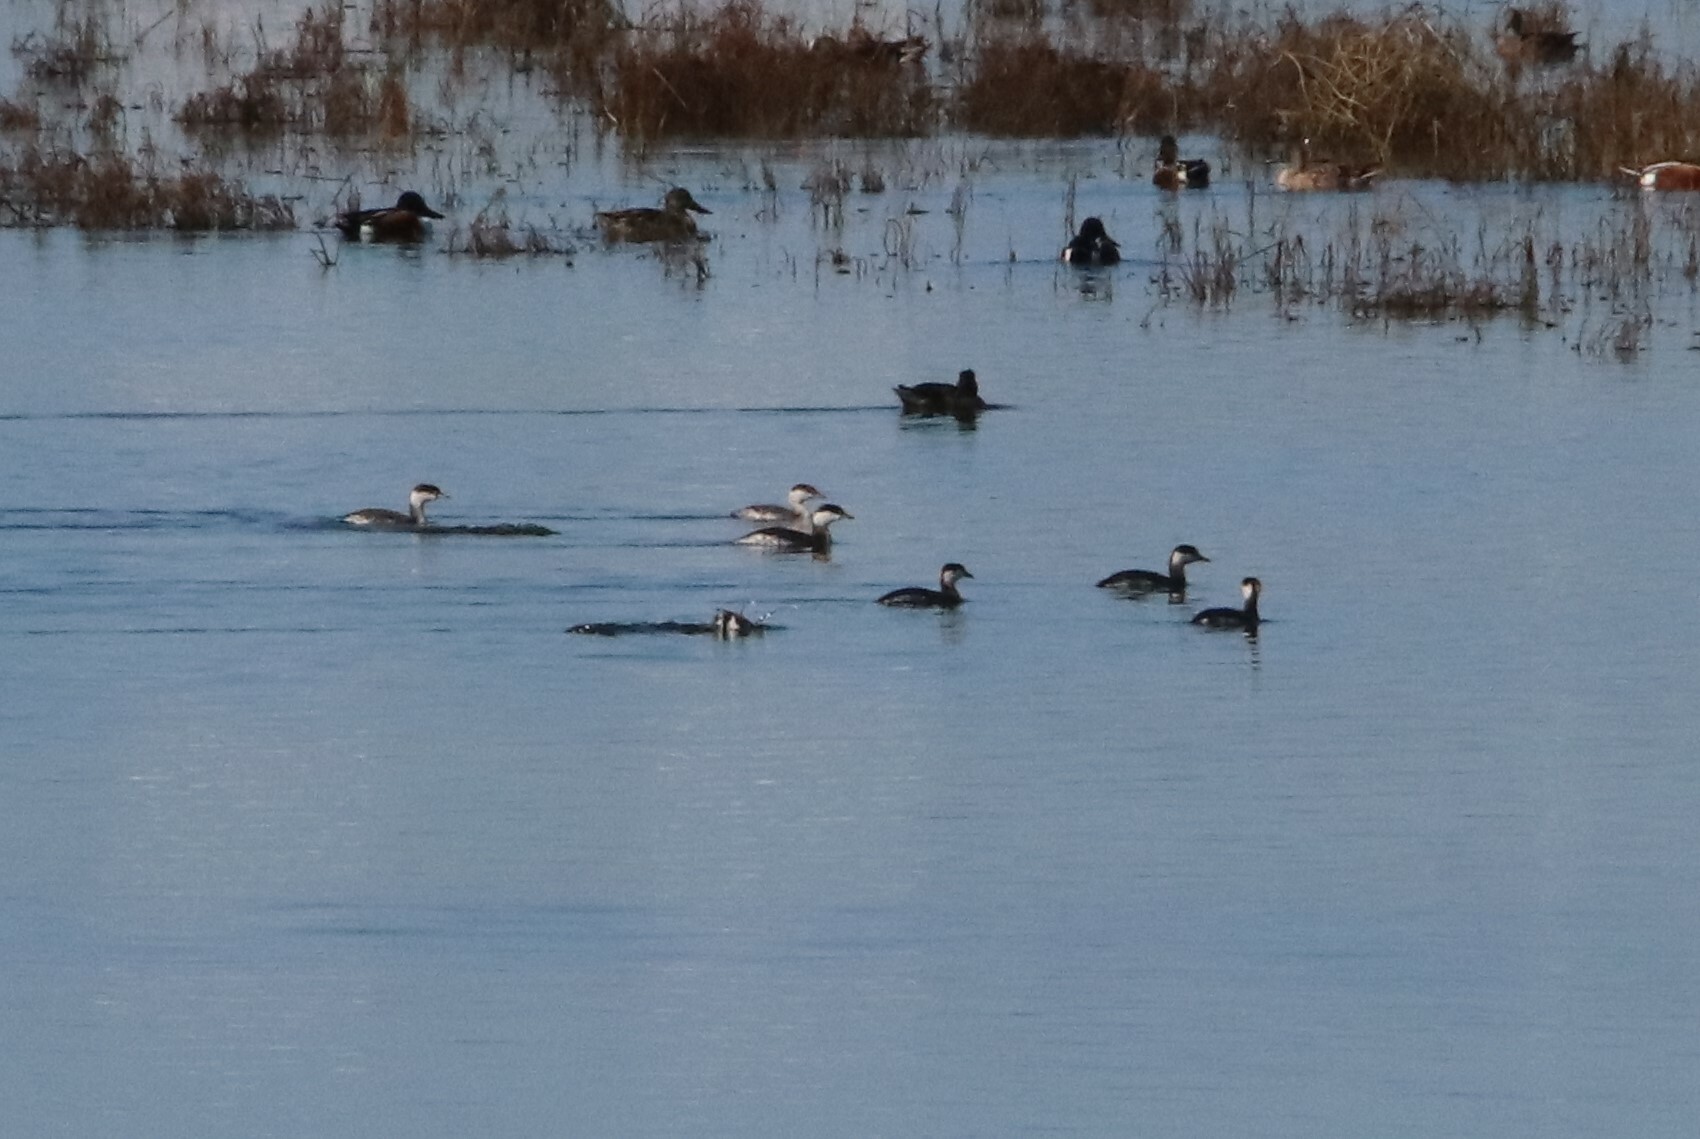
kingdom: Animalia
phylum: Chordata
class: Aves
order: Podicipediformes
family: Podicipedidae
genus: Podiceps
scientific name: Podiceps auritus
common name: Horned grebe
